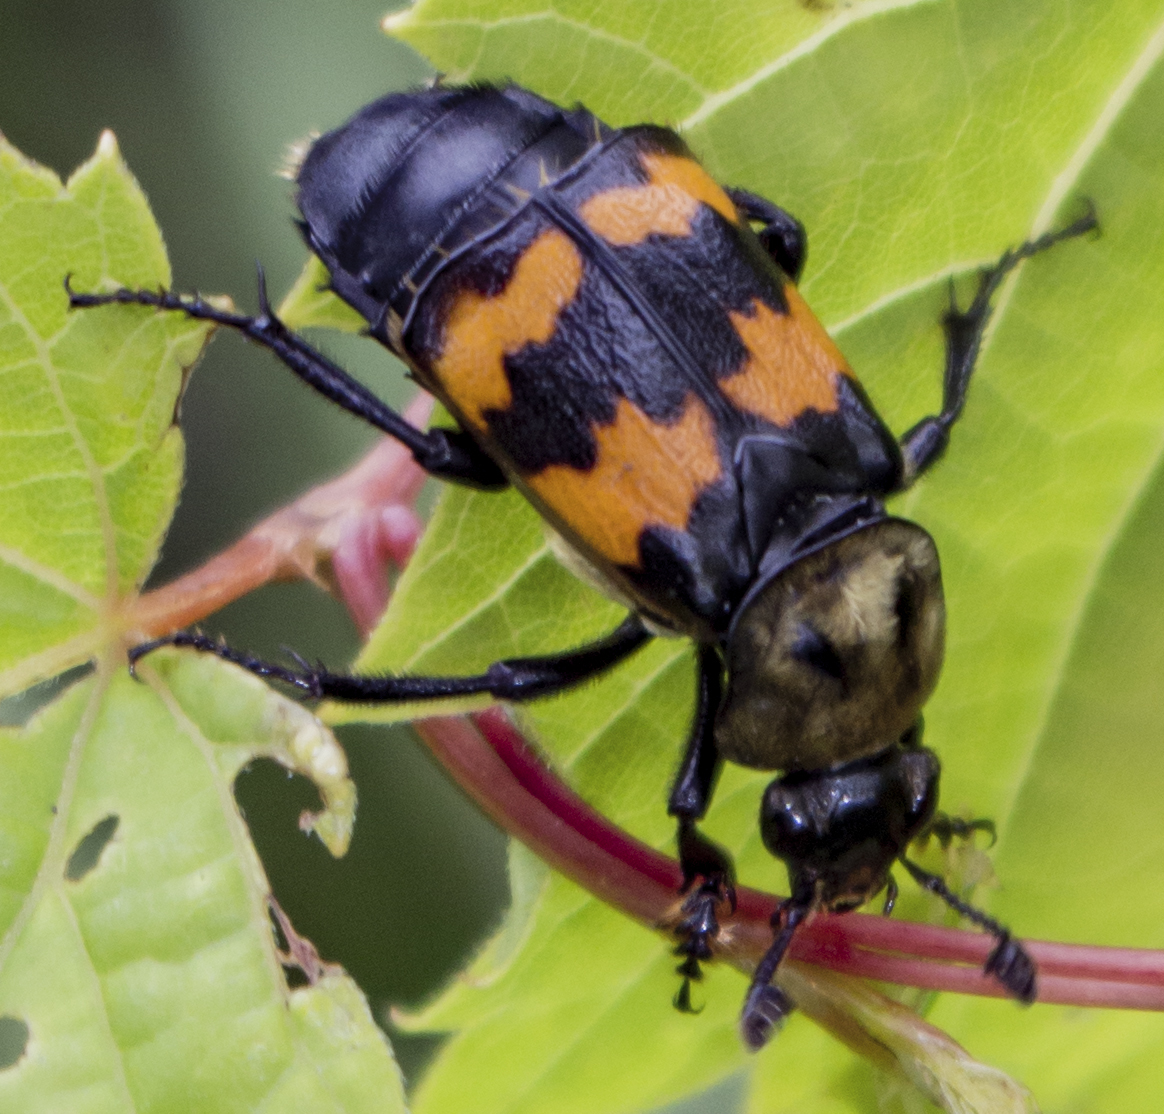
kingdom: Animalia
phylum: Arthropoda
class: Insecta
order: Coleoptera
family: Staphylinidae
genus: Nicrophorus
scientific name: Nicrophorus tomentosus
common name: Tomentose burying beetle
